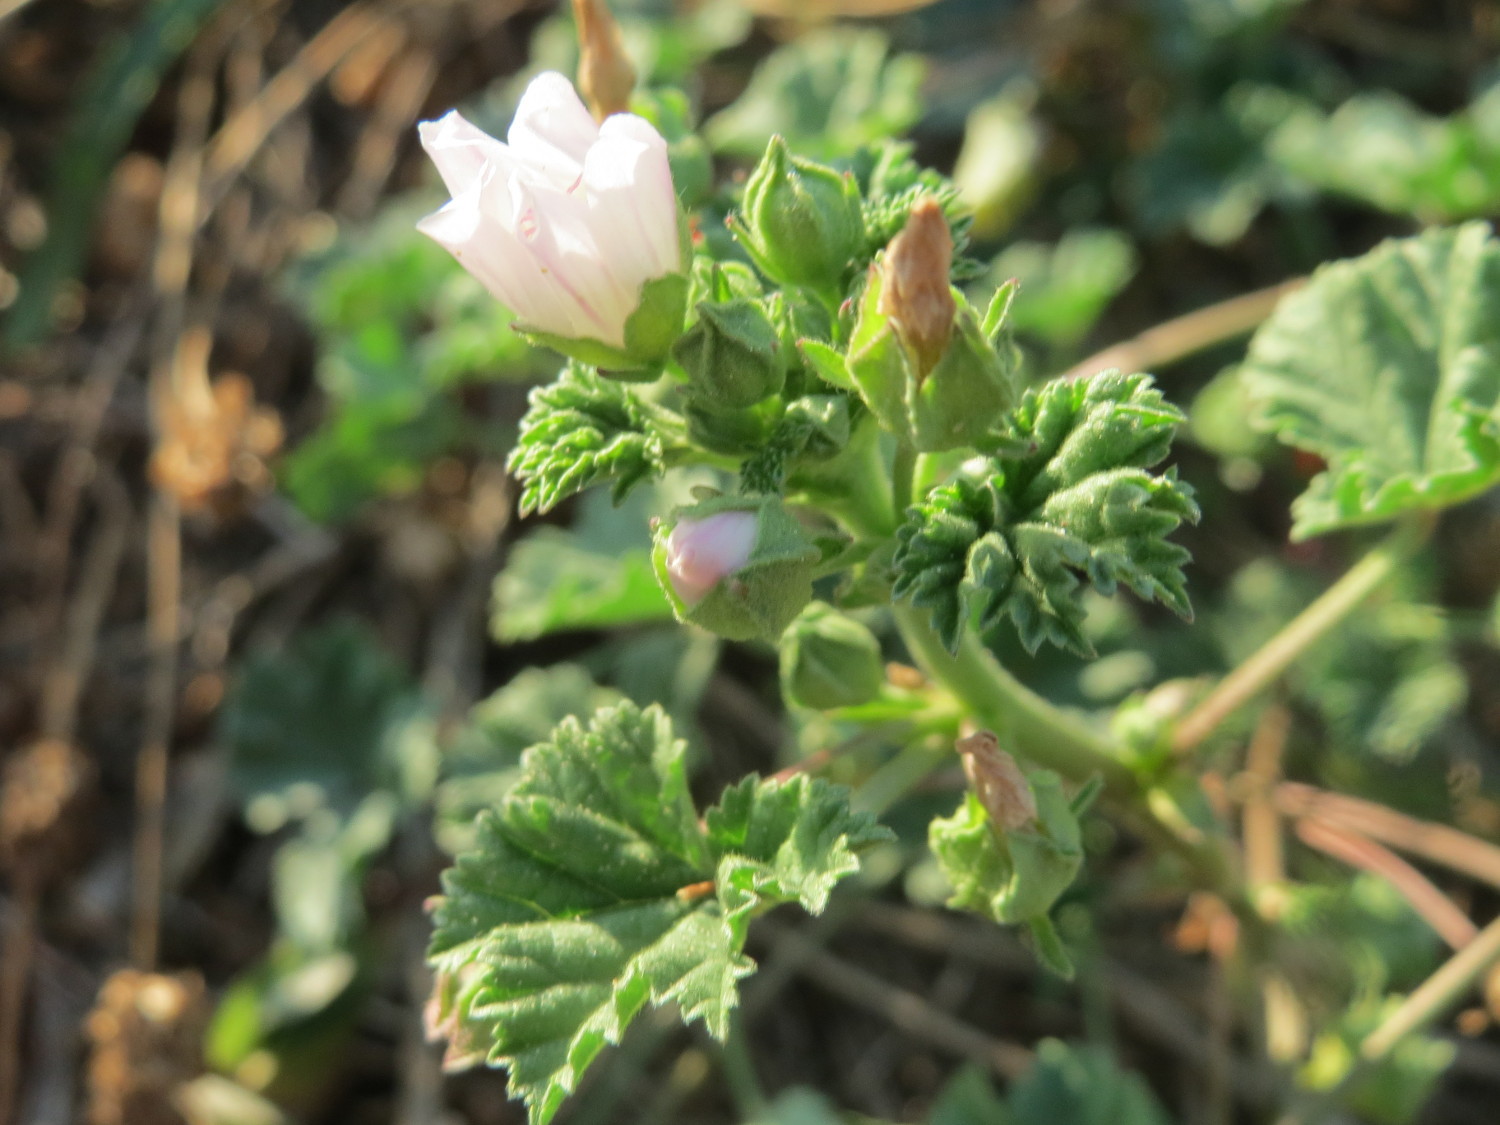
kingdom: Plantae
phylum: Tracheophyta
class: Magnoliopsida
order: Malvales
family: Malvaceae
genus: Malva
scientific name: Malva neglecta
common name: Common mallow
